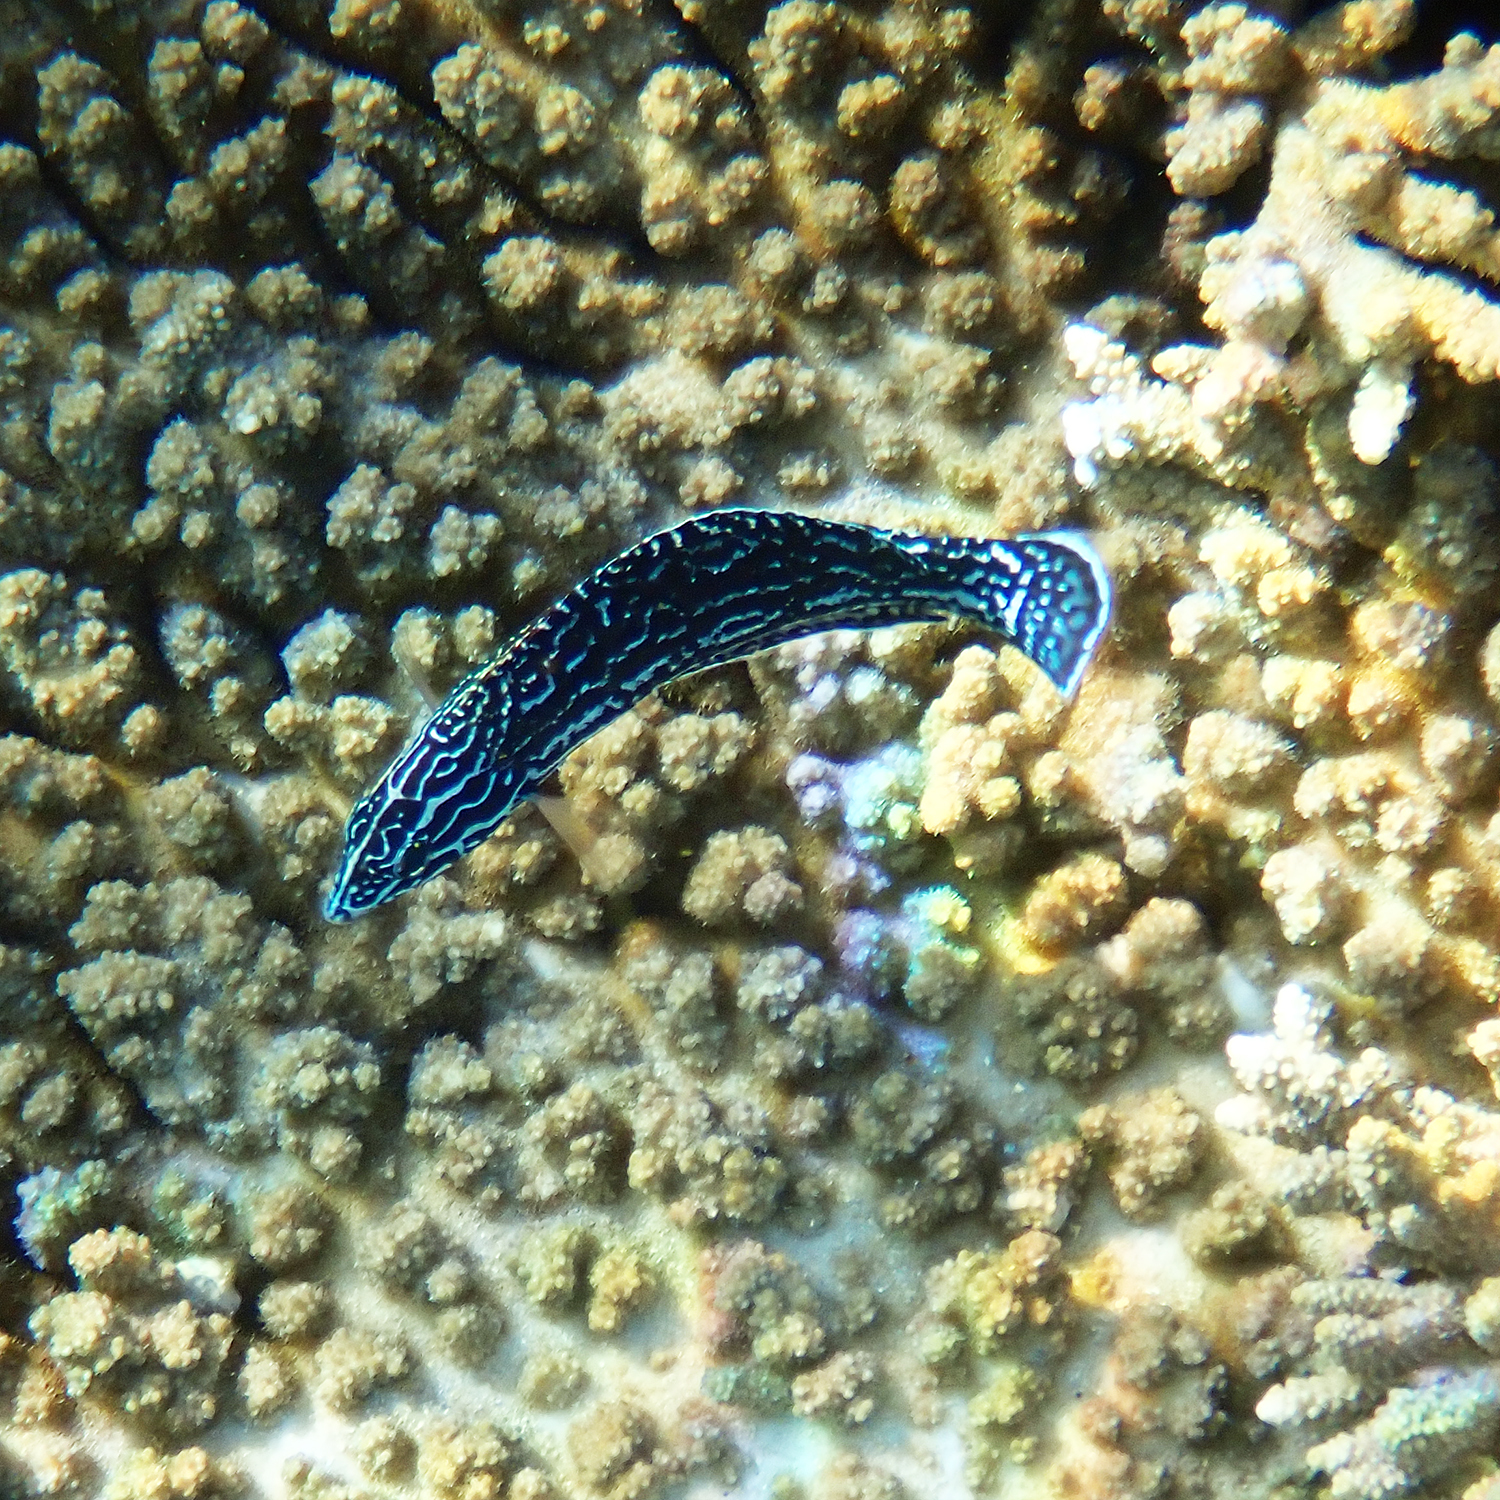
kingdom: Animalia
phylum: Chordata
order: Perciformes
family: Labridae
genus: Coris
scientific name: Coris bulbifrons
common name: Doubleheader
